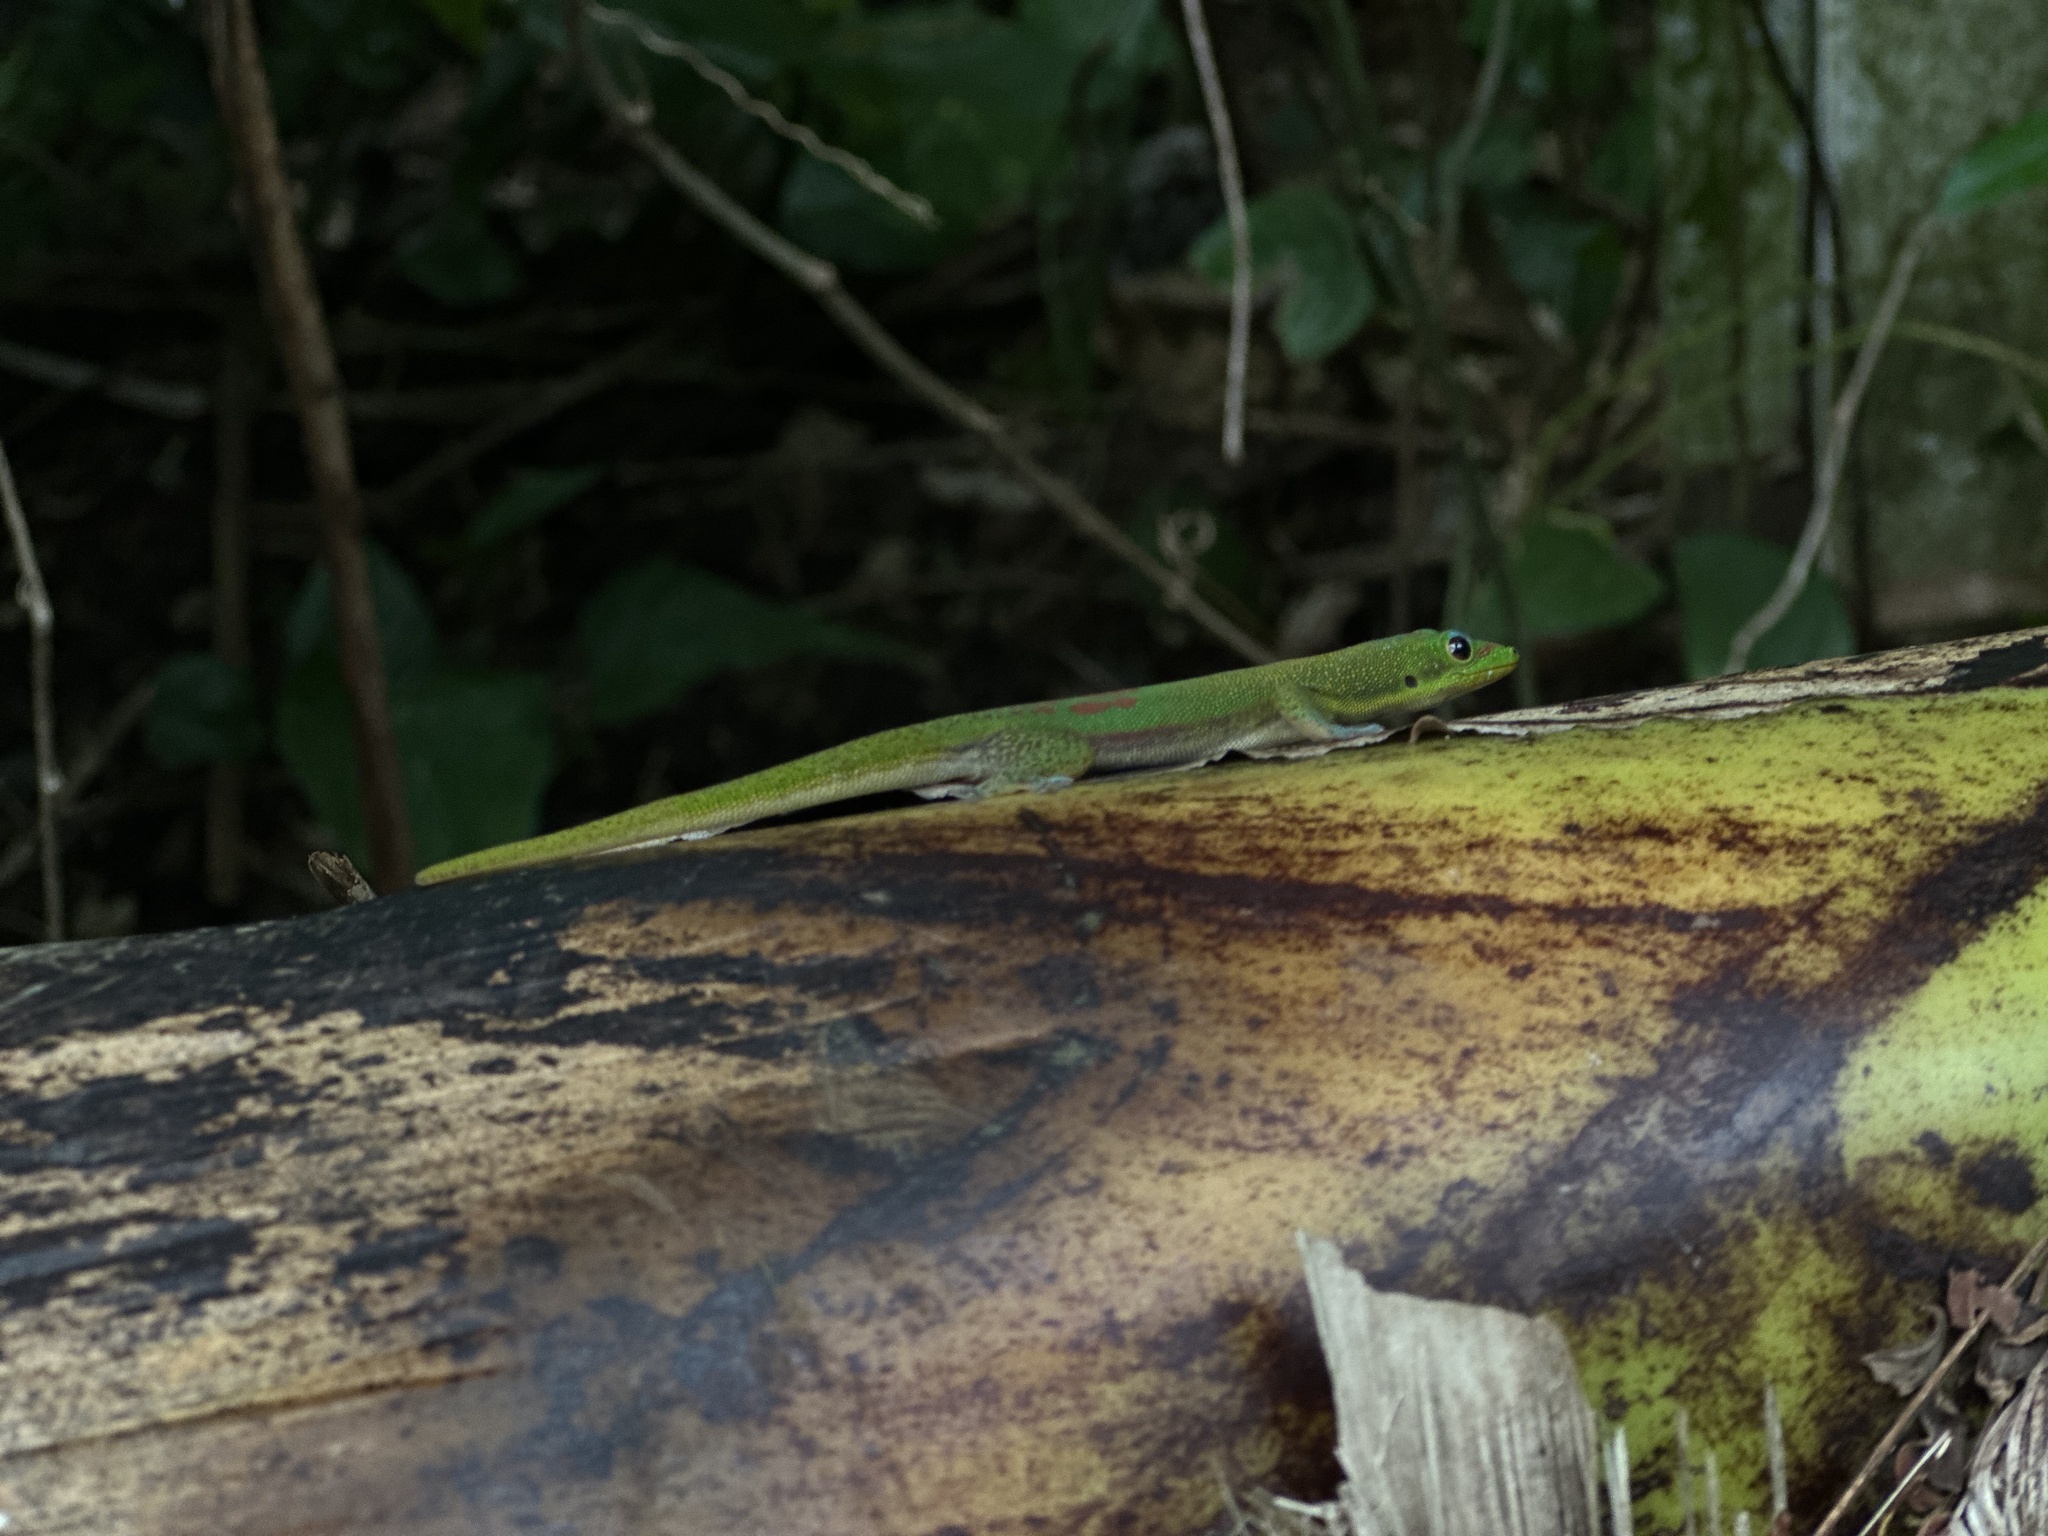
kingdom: Animalia
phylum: Chordata
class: Squamata
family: Gekkonidae
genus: Phelsuma
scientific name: Phelsuma laticauda
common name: Gold dust day gecko
